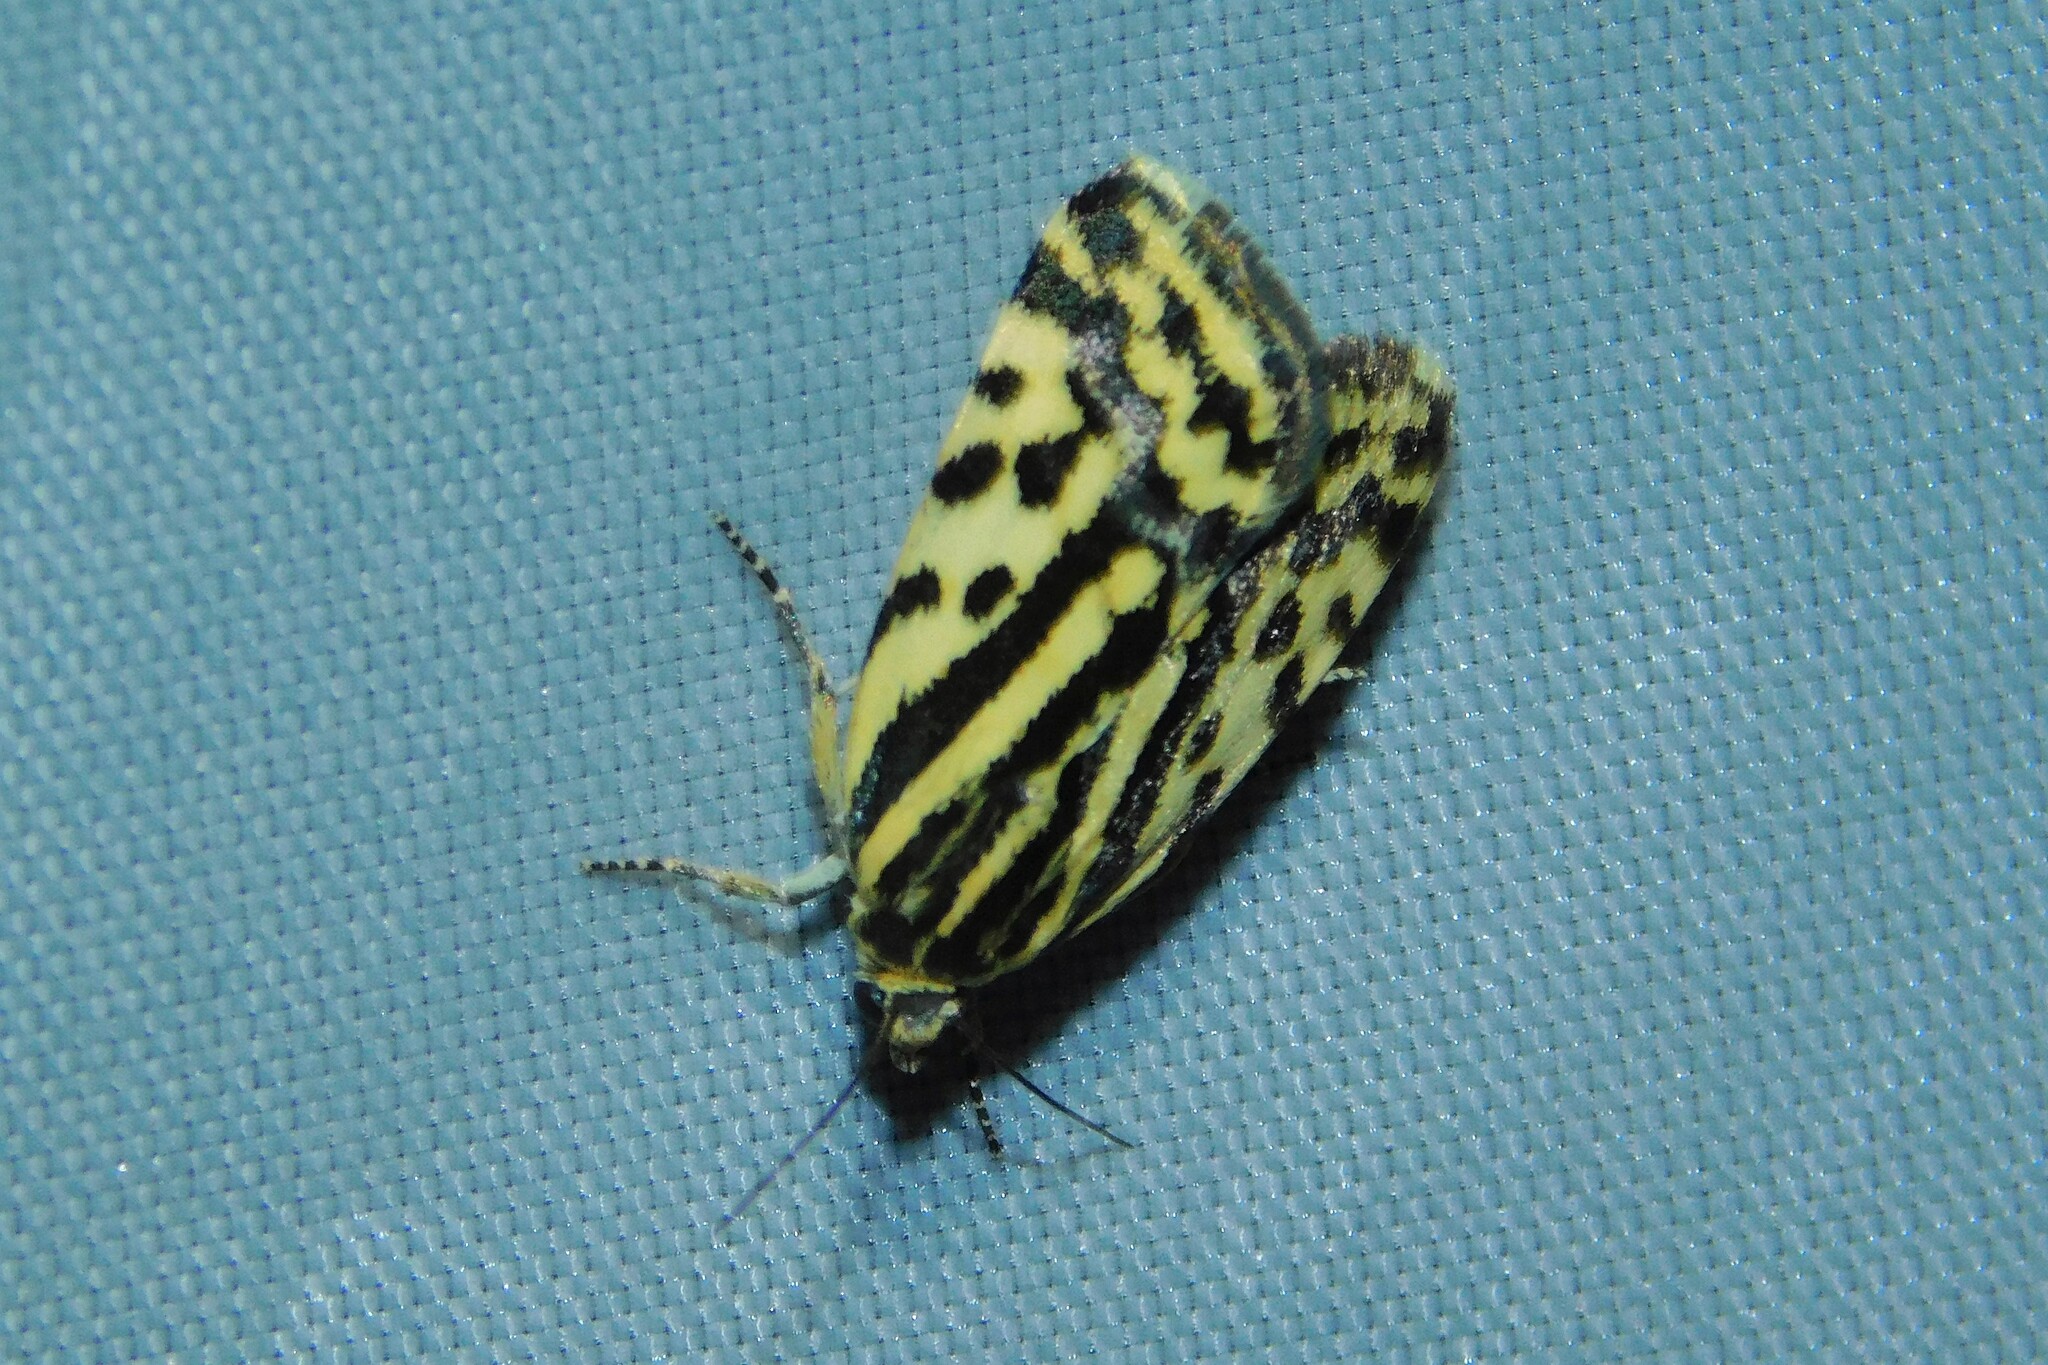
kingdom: Animalia
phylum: Arthropoda
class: Insecta
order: Lepidoptera
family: Noctuidae
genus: Acontia
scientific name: Acontia trabealis
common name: Spotted sulphur
